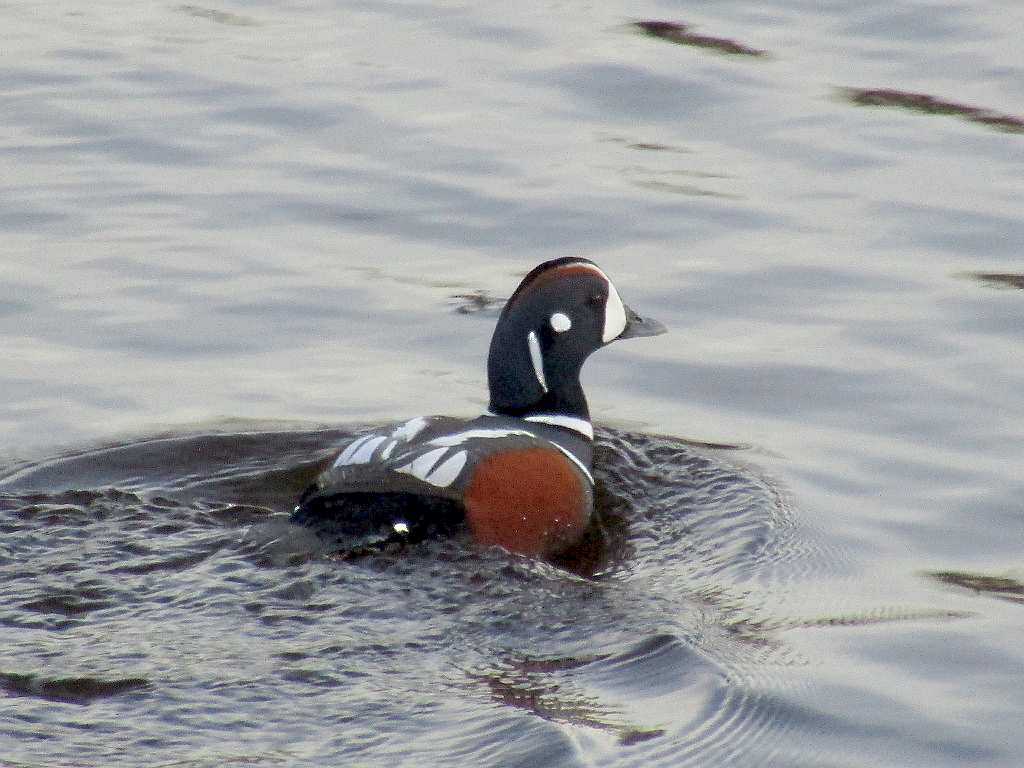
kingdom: Animalia
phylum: Chordata
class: Aves
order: Anseriformes
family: Anatidae
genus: Histrionicus
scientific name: Histrionicus histrionicus
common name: Harlequin duck
